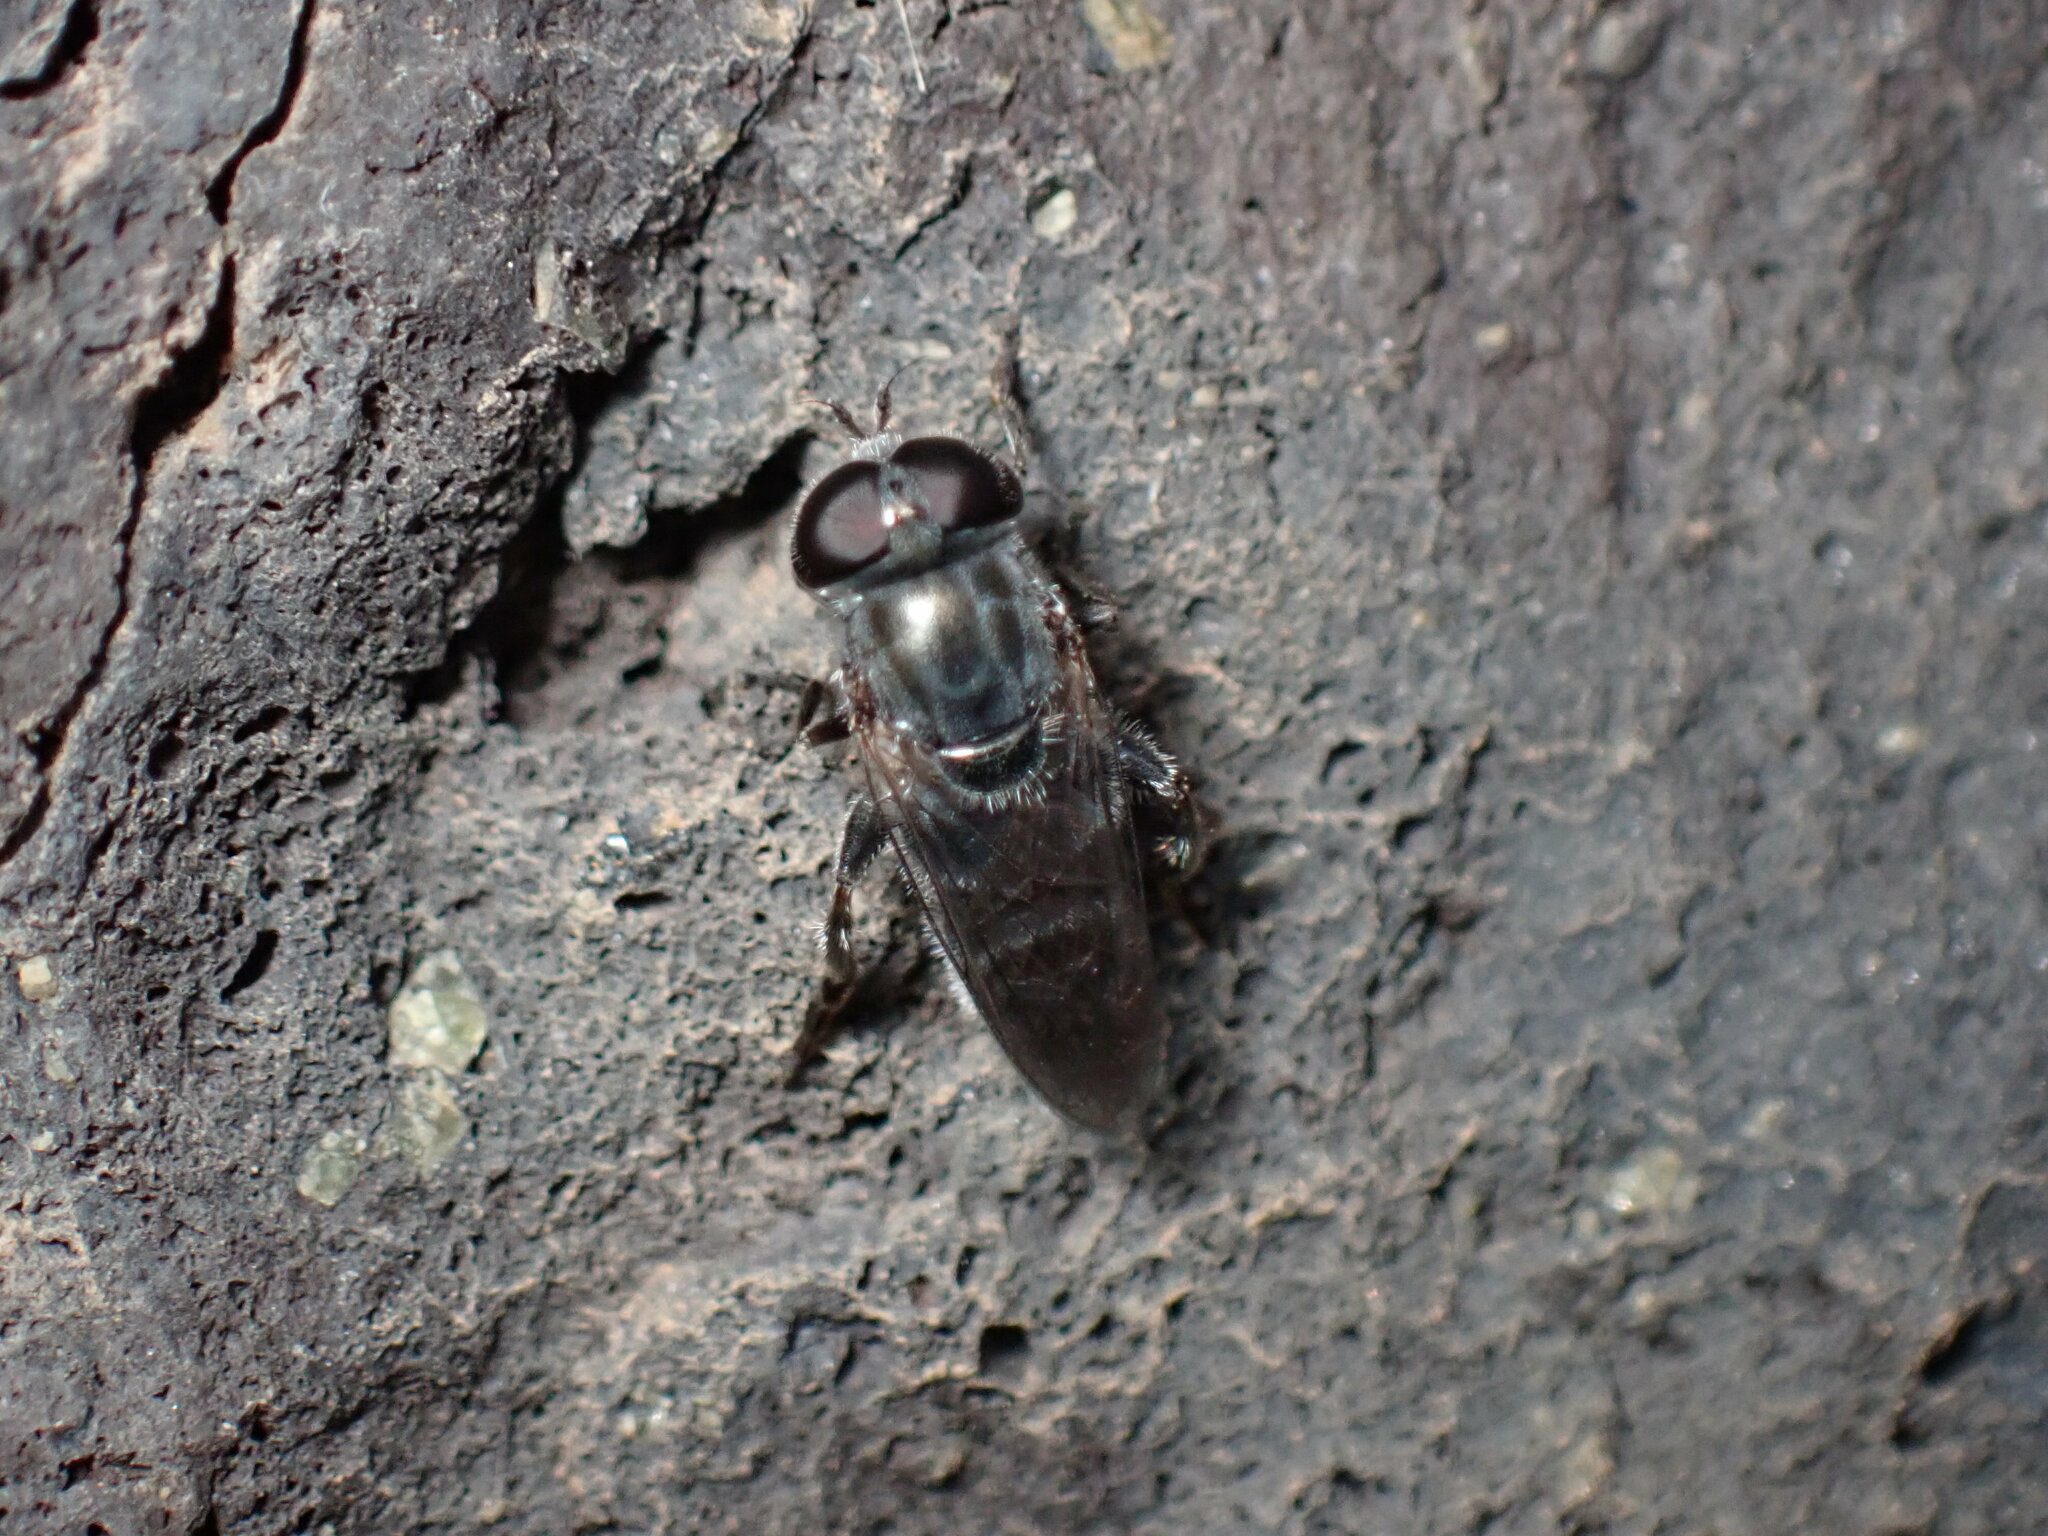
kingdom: Animalia
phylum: Arthropoda
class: Insecta
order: Diptera
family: Syrphidae
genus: Eumerus
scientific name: Eumerus latitarsis
